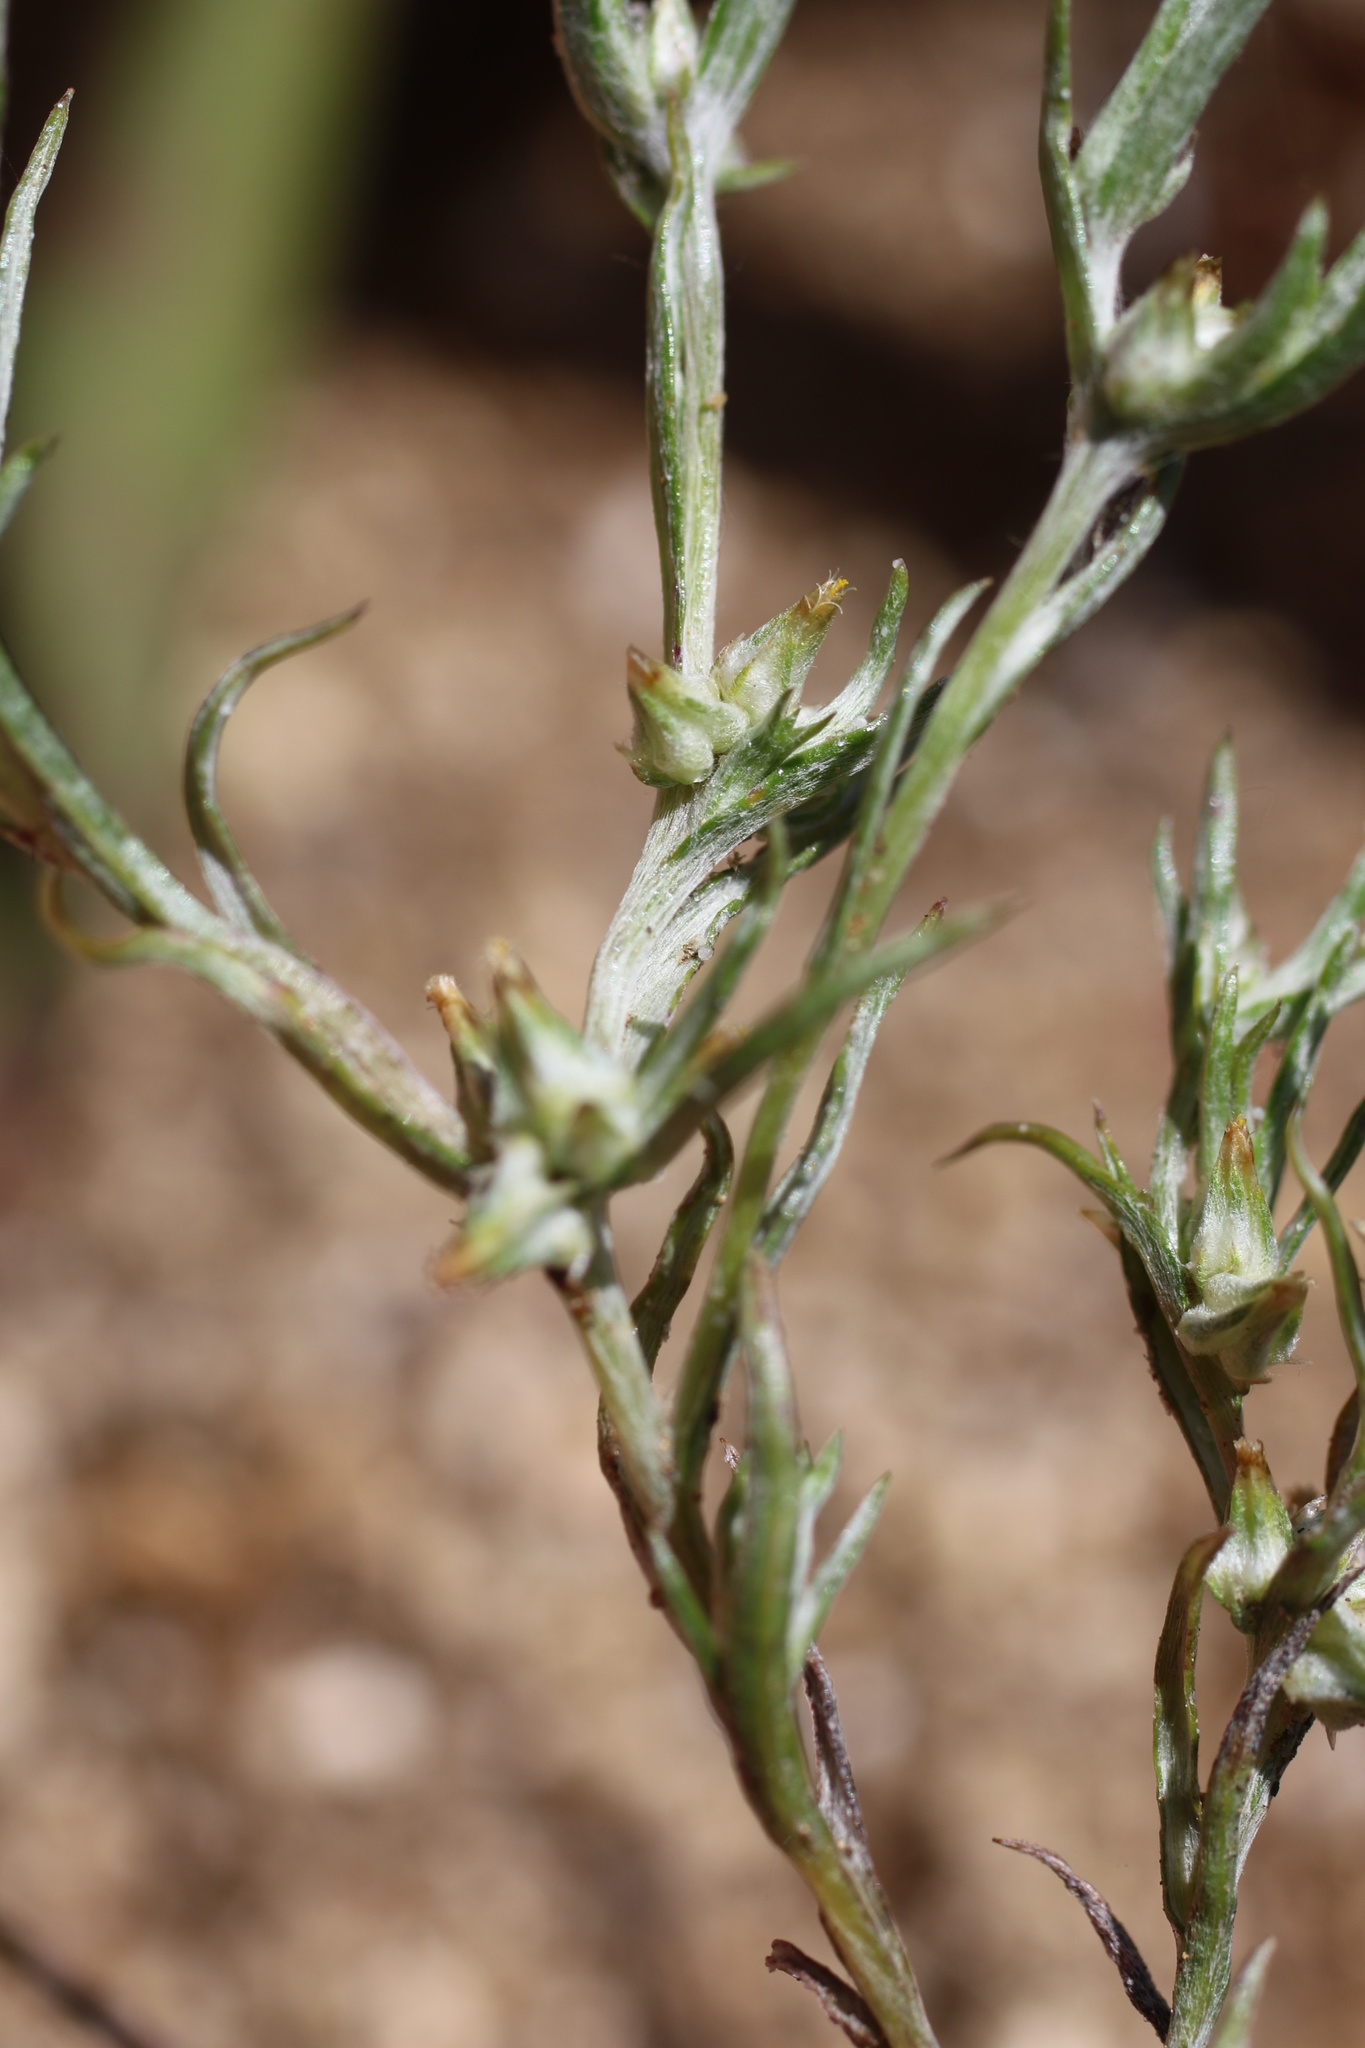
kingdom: Plantae
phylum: Tracheophyta
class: Magnoliopsida
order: Asterales
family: Asteraceae
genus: Logfia
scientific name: Logfia gallica
